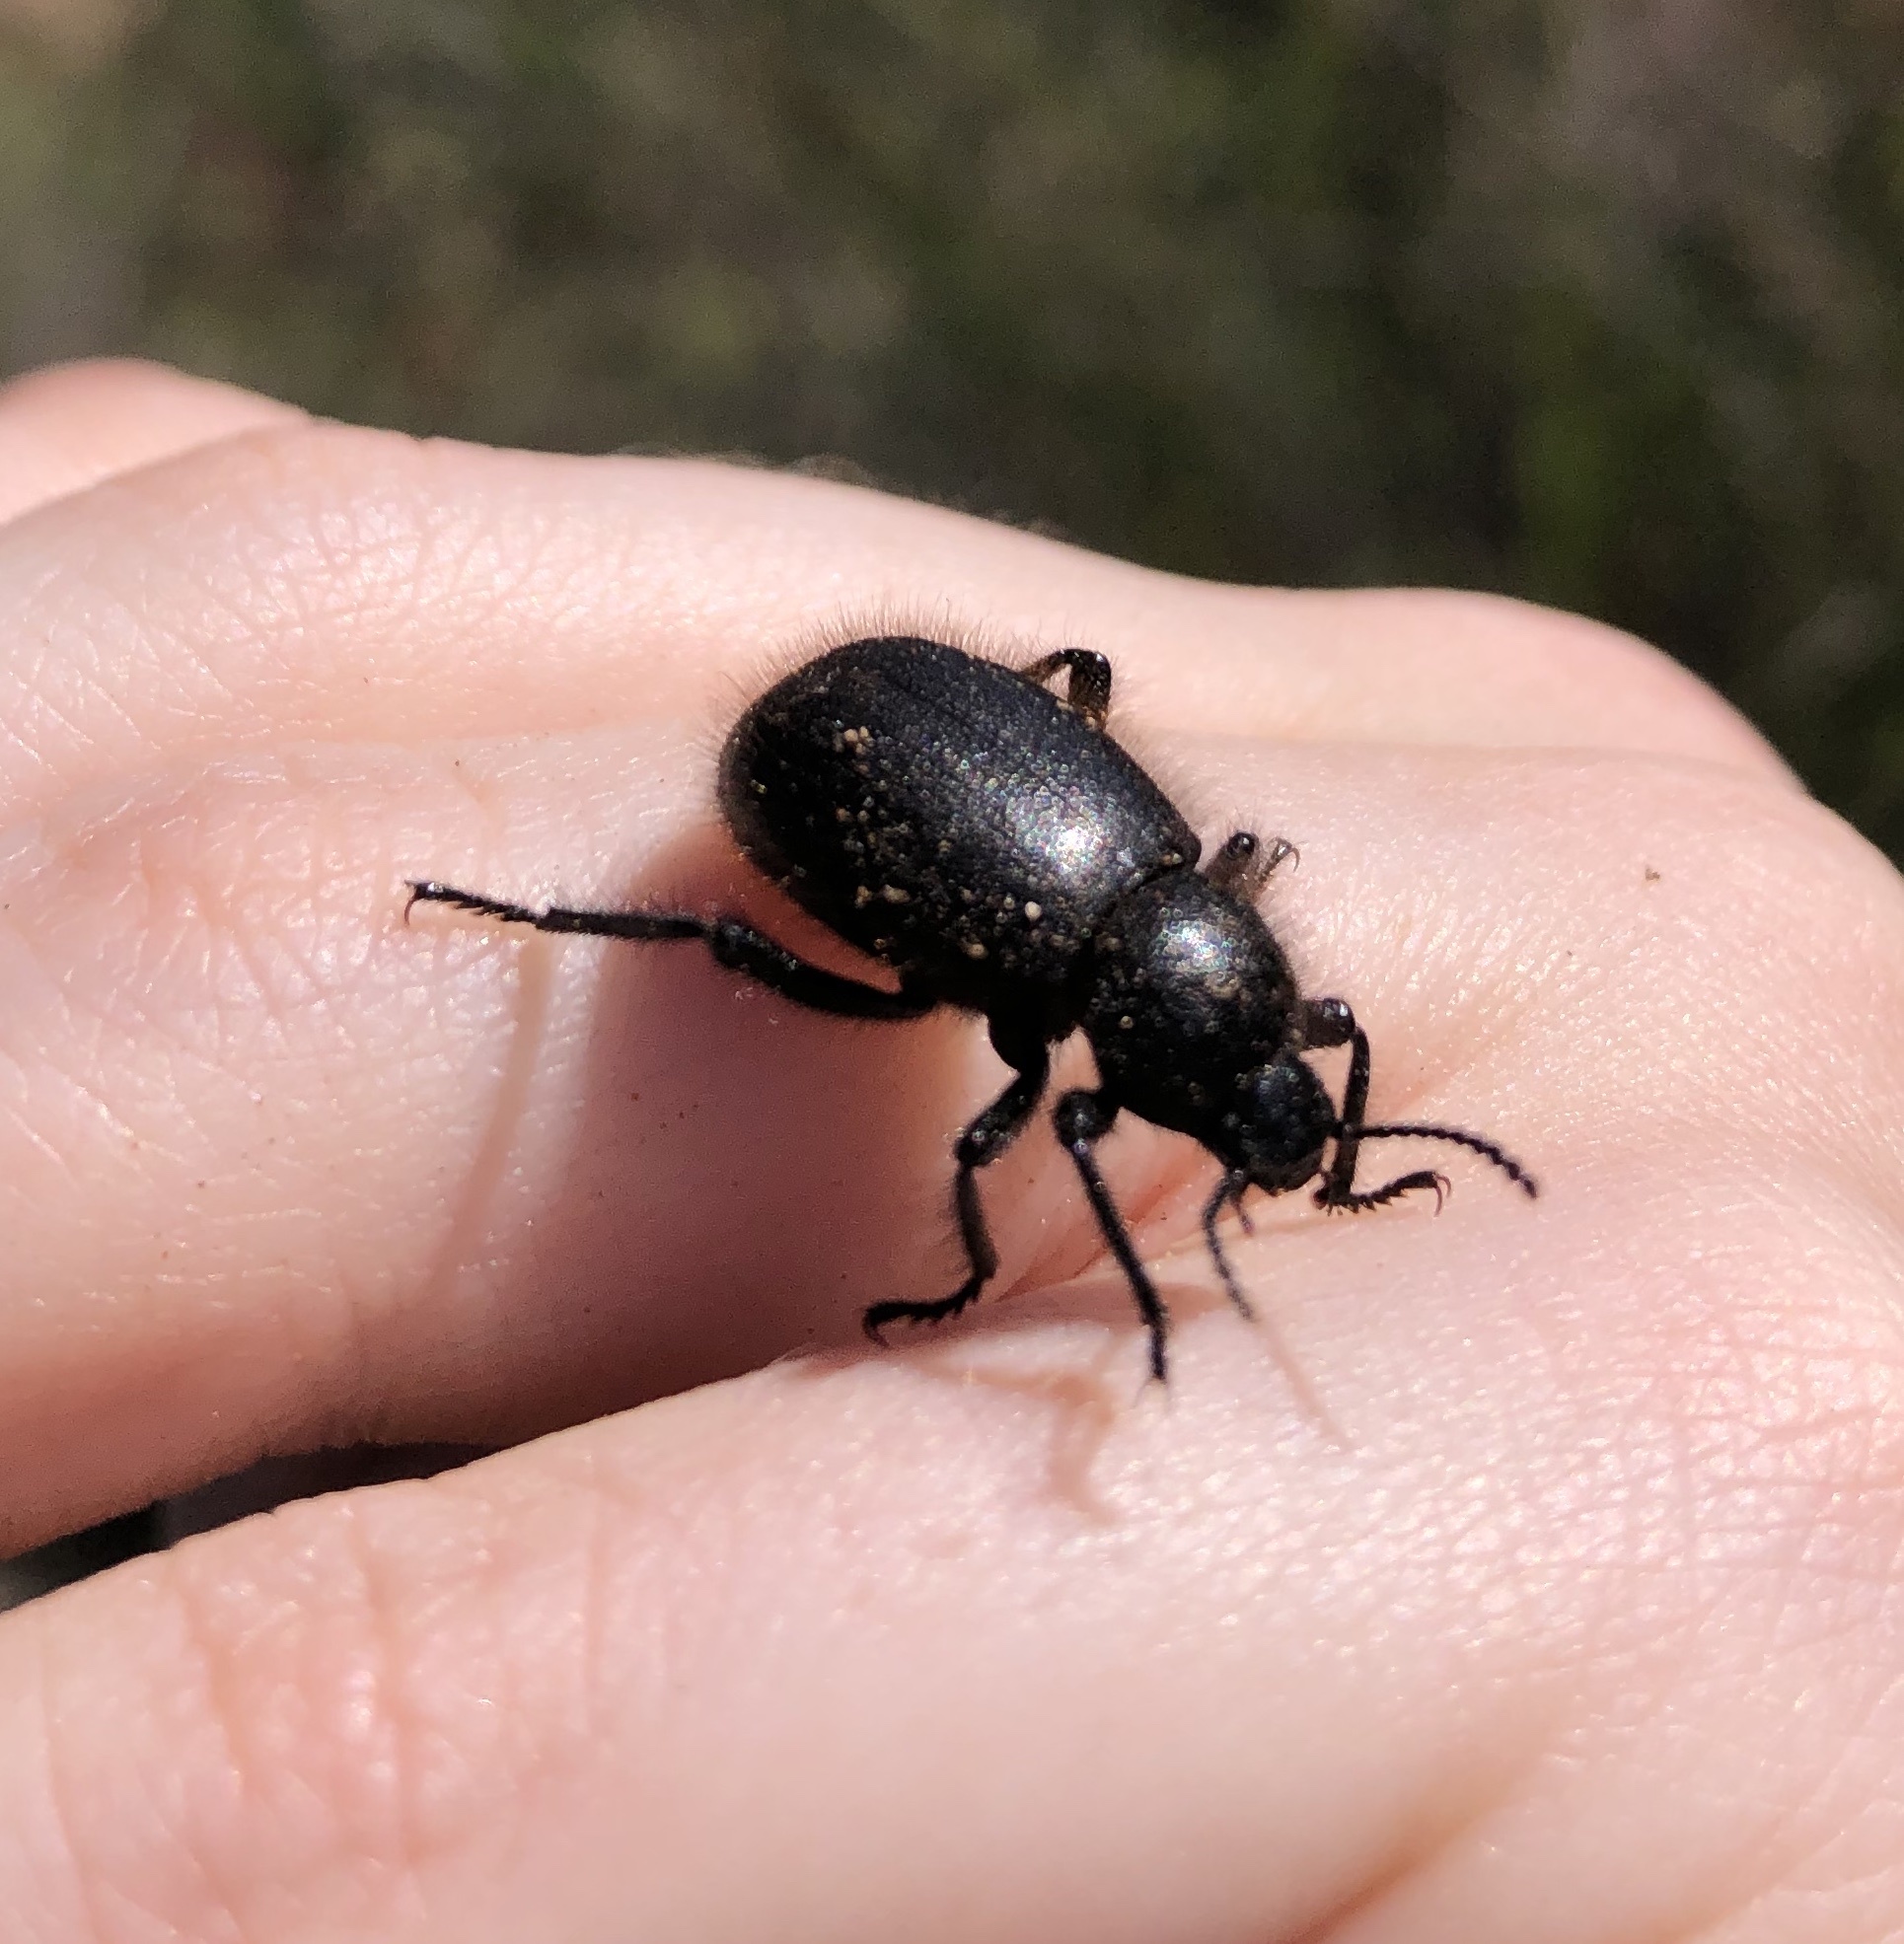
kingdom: Animalia
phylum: Arthropoda
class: Insecta
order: Coleoptera
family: Tenebrionidae
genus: Eleodes
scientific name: Eleodes osculans
